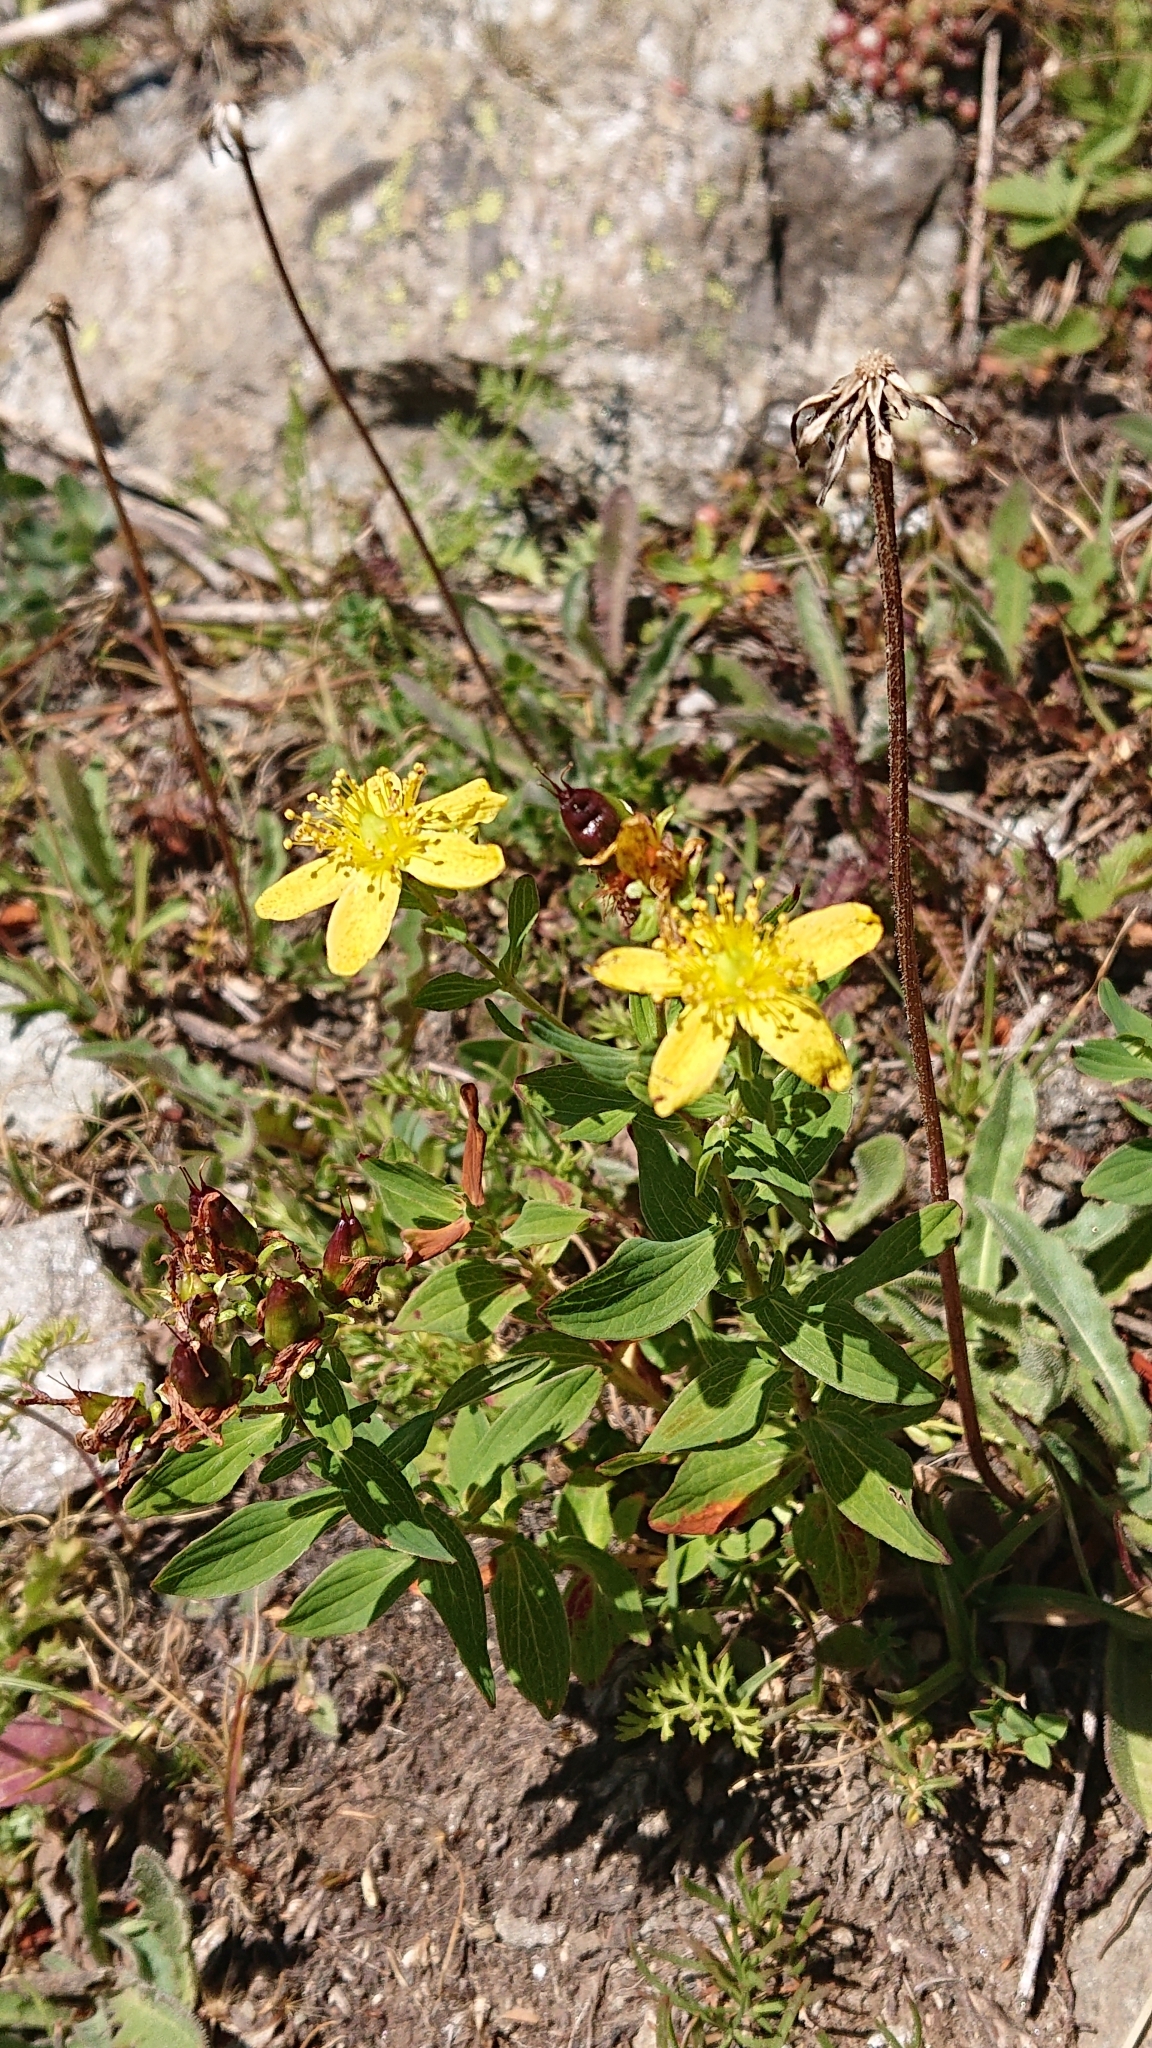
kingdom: Plantae
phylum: Tracheophyta
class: Magnoliopsida
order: Malpighiales
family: Hypericaceae
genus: Hypericum
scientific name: Hypericum maculatum
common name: Imperforate st. john's-wort
